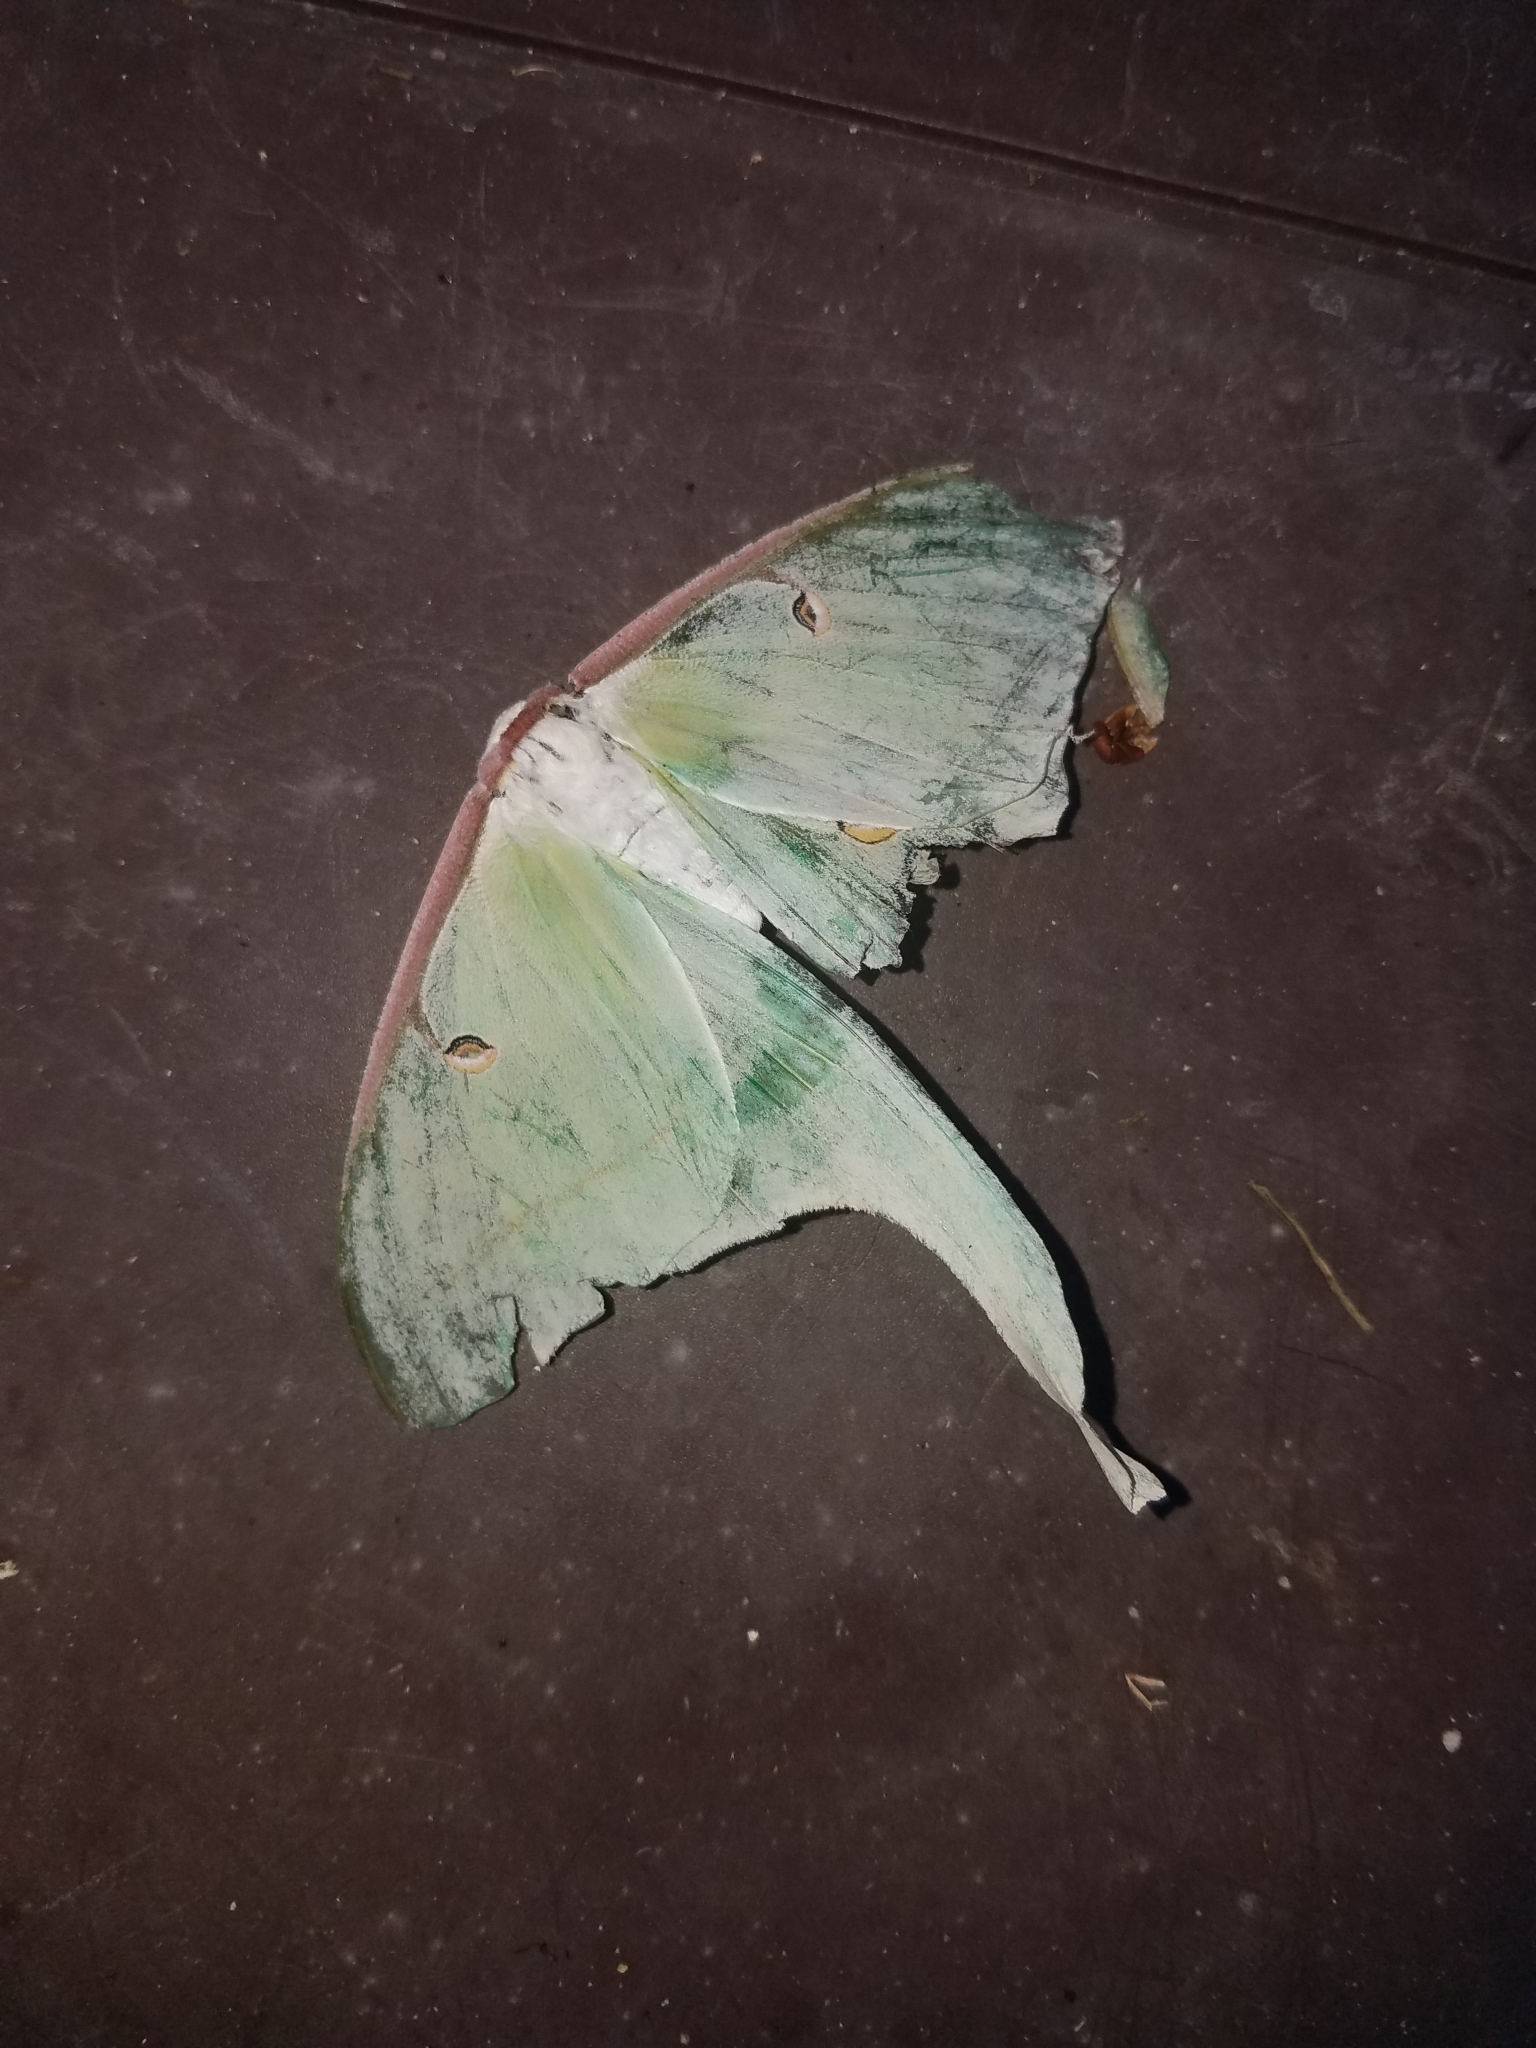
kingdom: Animalia
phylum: Arthropoda
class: Insecta
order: Lepidoptera
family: Saturniidae
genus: Actias
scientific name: Actias luna
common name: Luna moth
